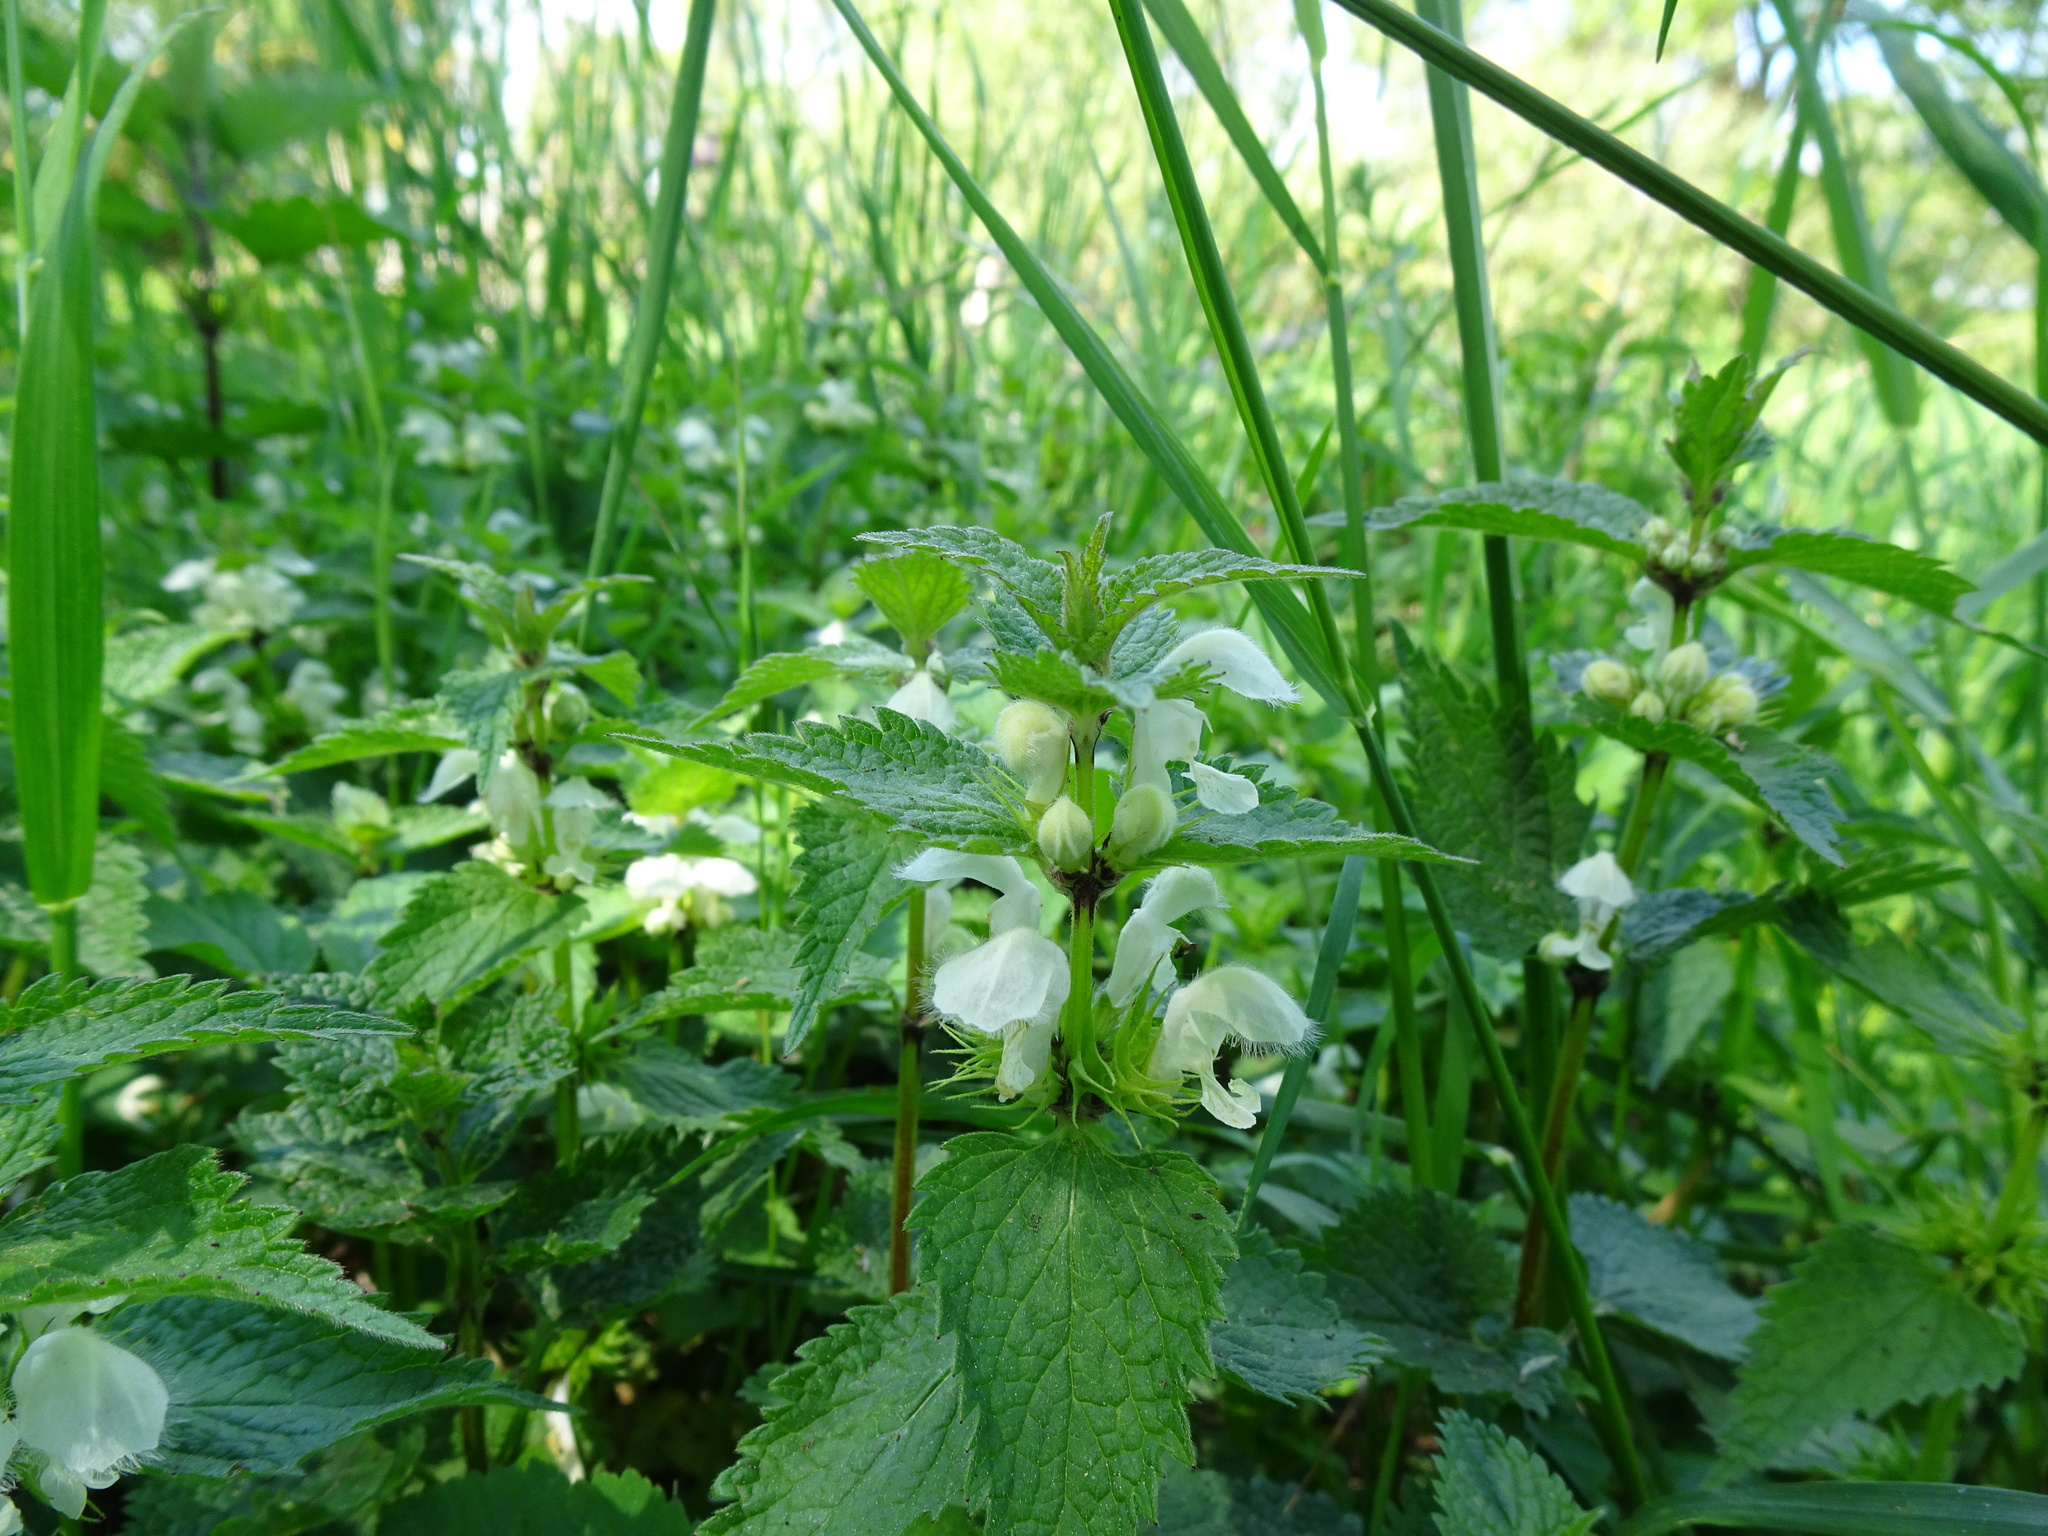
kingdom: Plantae
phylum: Tracheophyta
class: Magnoliopsida
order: Lamiales
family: Lamiaceae
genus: Lamium
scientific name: Lamium album
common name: White dead-nettle
